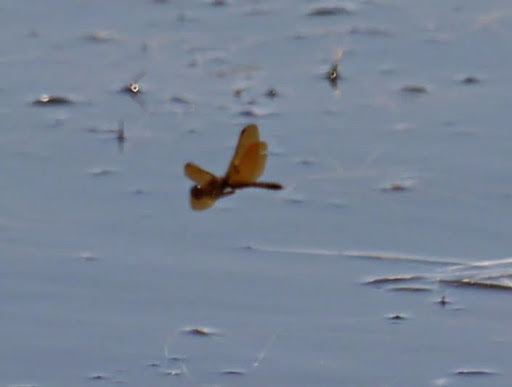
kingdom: Animalia
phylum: Arthropoda
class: Insecta
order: Odonata
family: Libellulidae
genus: Perithemis
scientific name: Perithemis tenera
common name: Eastern amberwing
